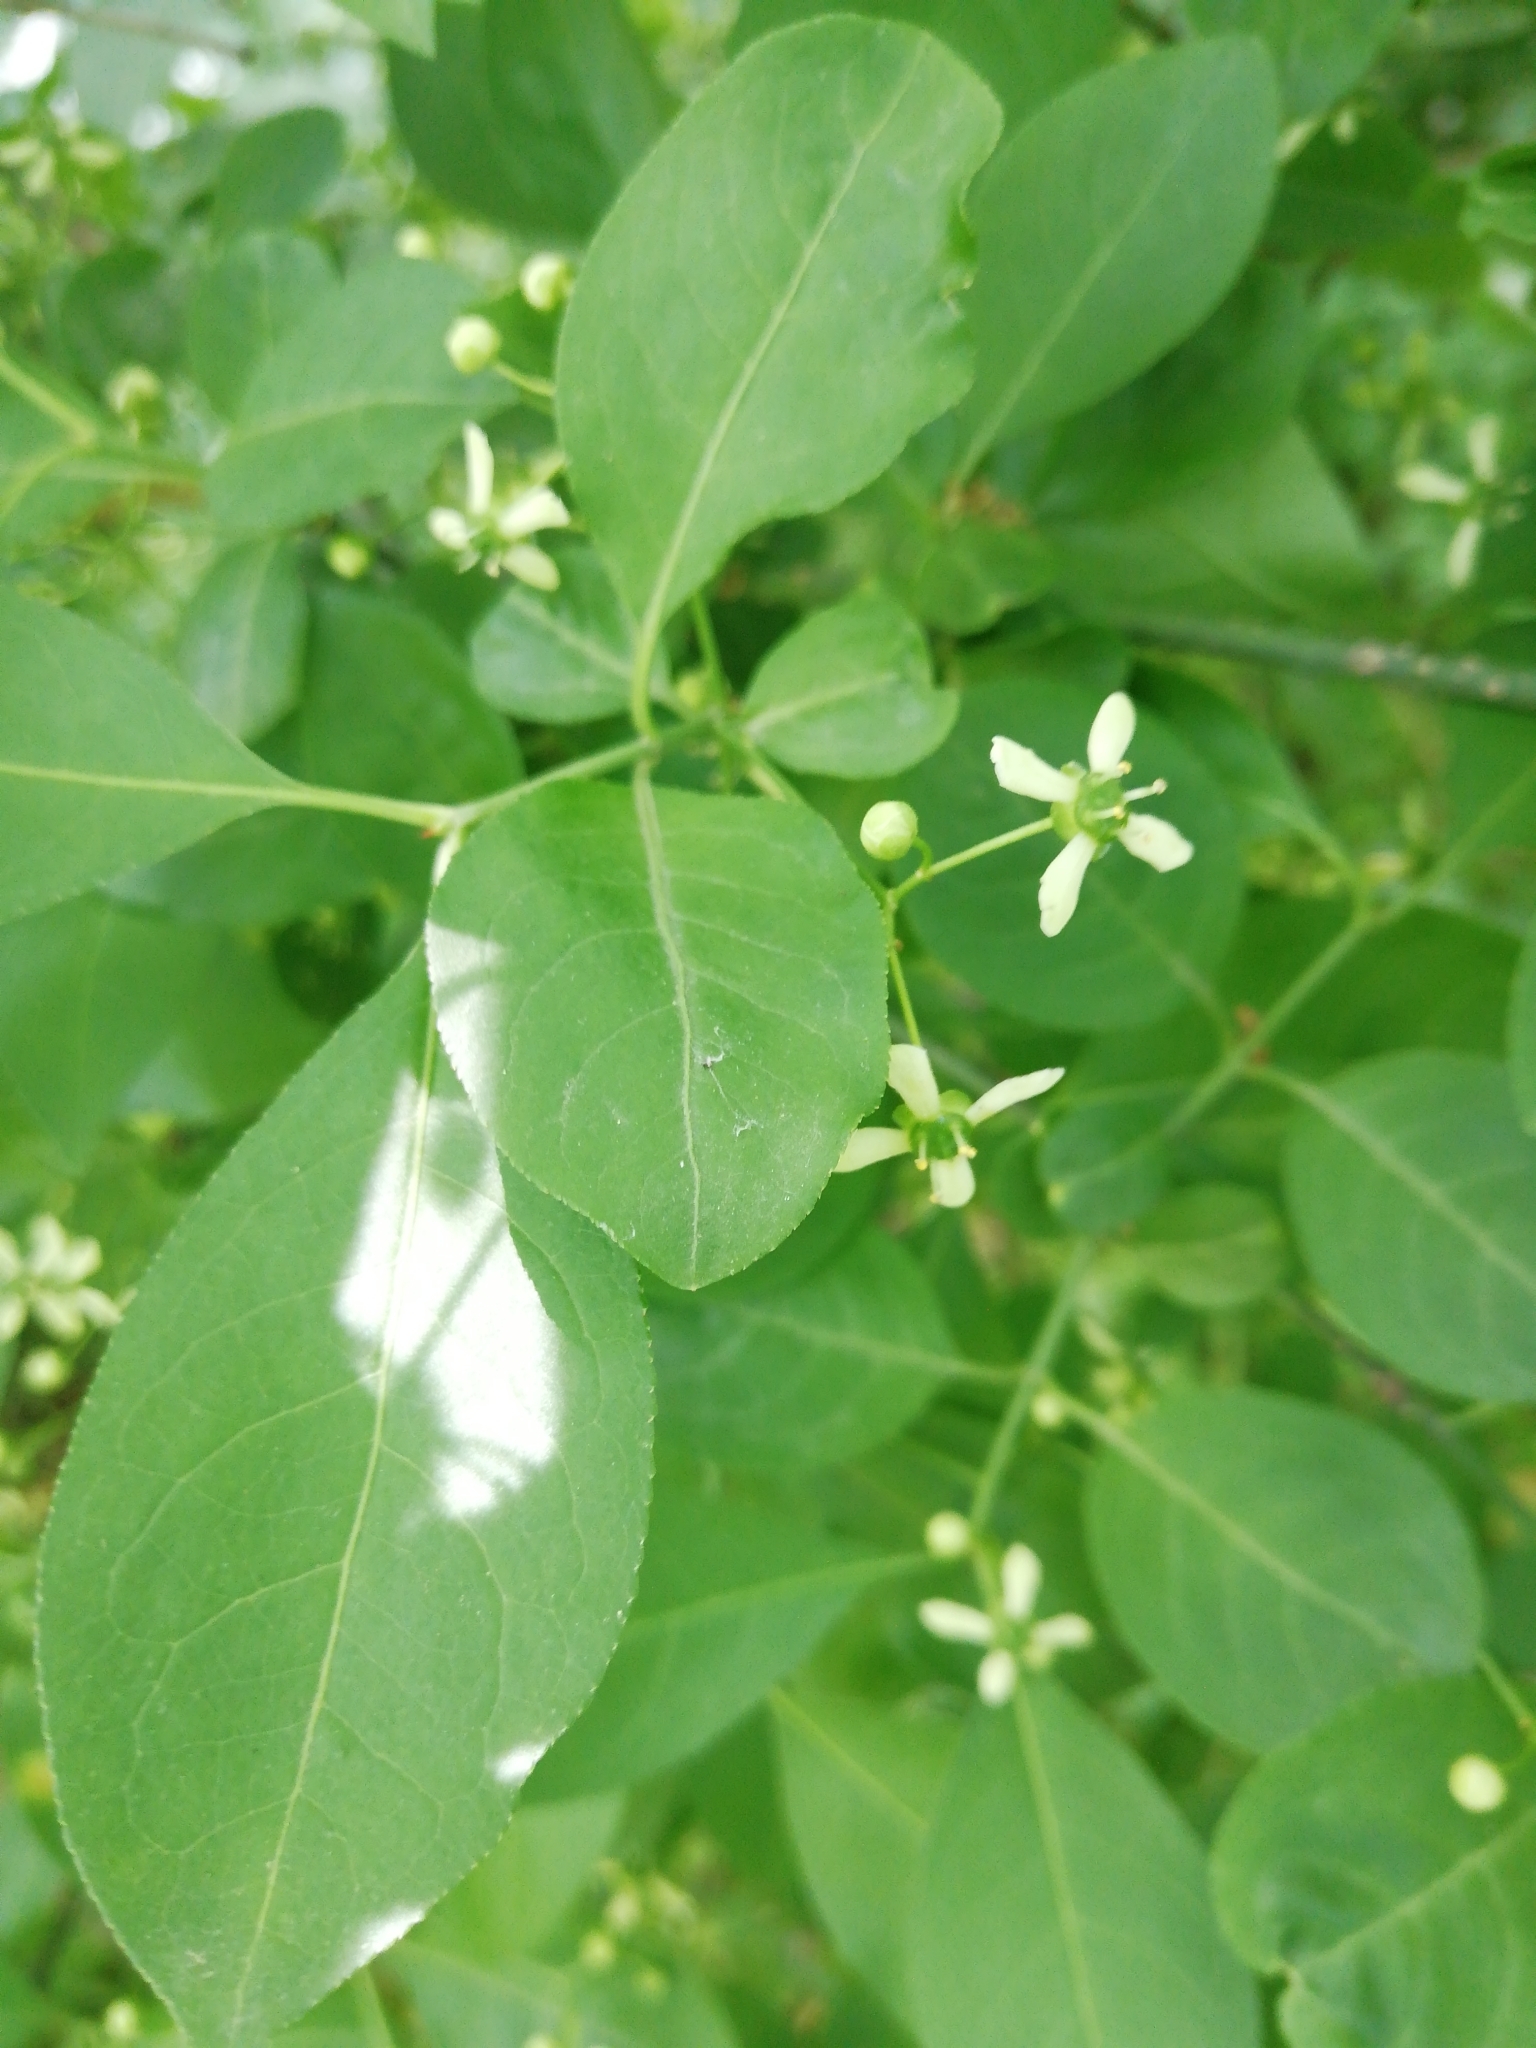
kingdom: Plantae
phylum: Tracheophyta
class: Magnoliopsida
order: Celastrales
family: Celastraceae
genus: Euonymus
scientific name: Euonymus europaeus
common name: Spindle
